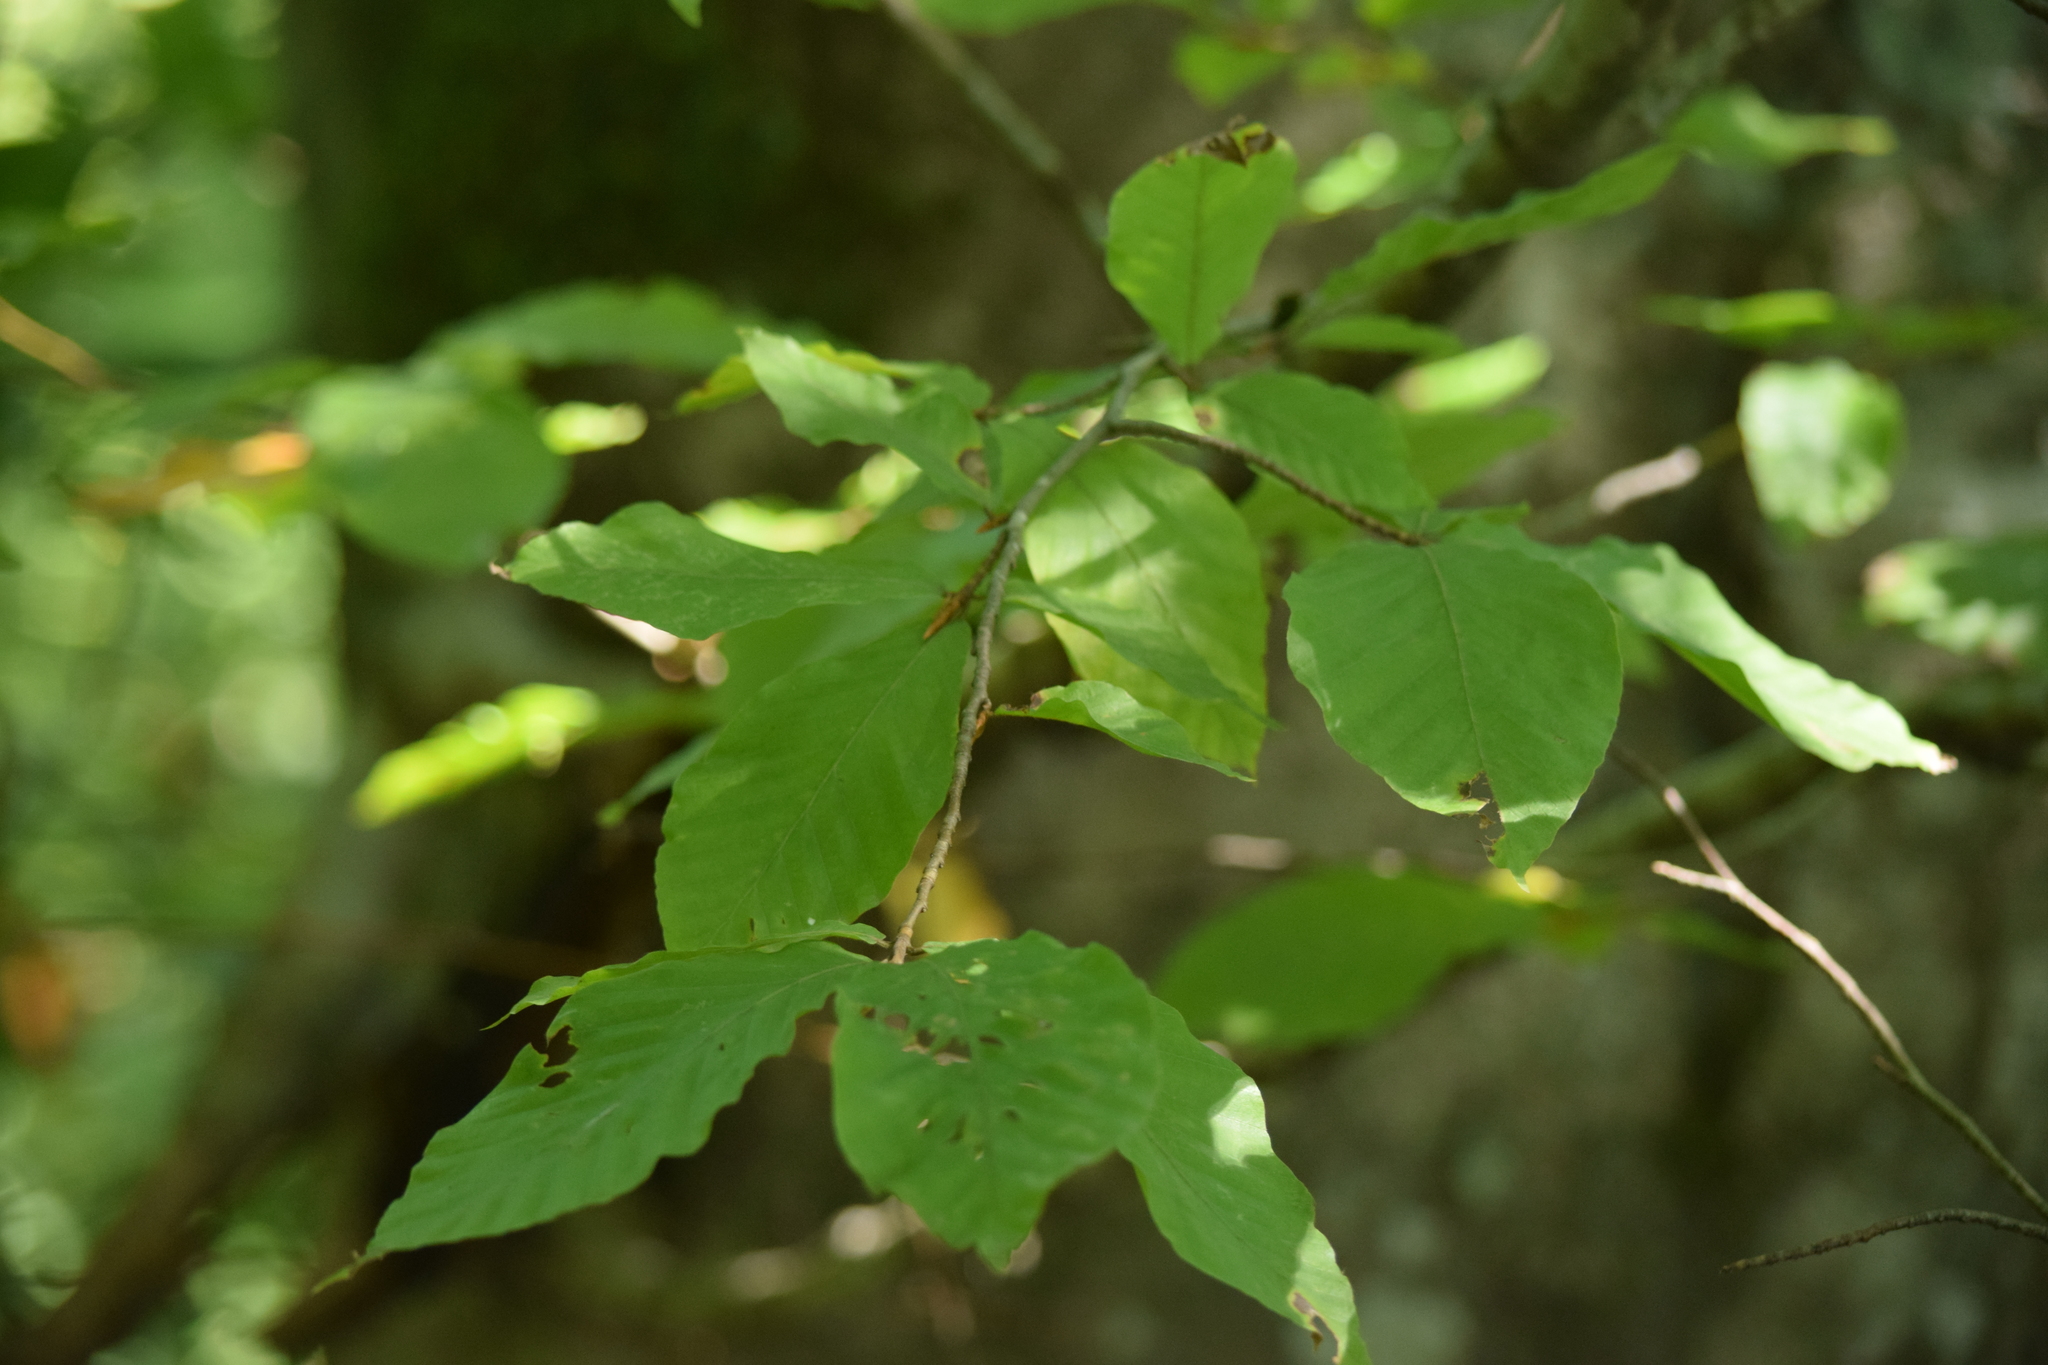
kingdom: Plantae
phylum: Tracheophyta
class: Magnoliopsida
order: Fagales
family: Fagaceae
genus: Fagus
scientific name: Fagus orientalis
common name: Oriental beech
